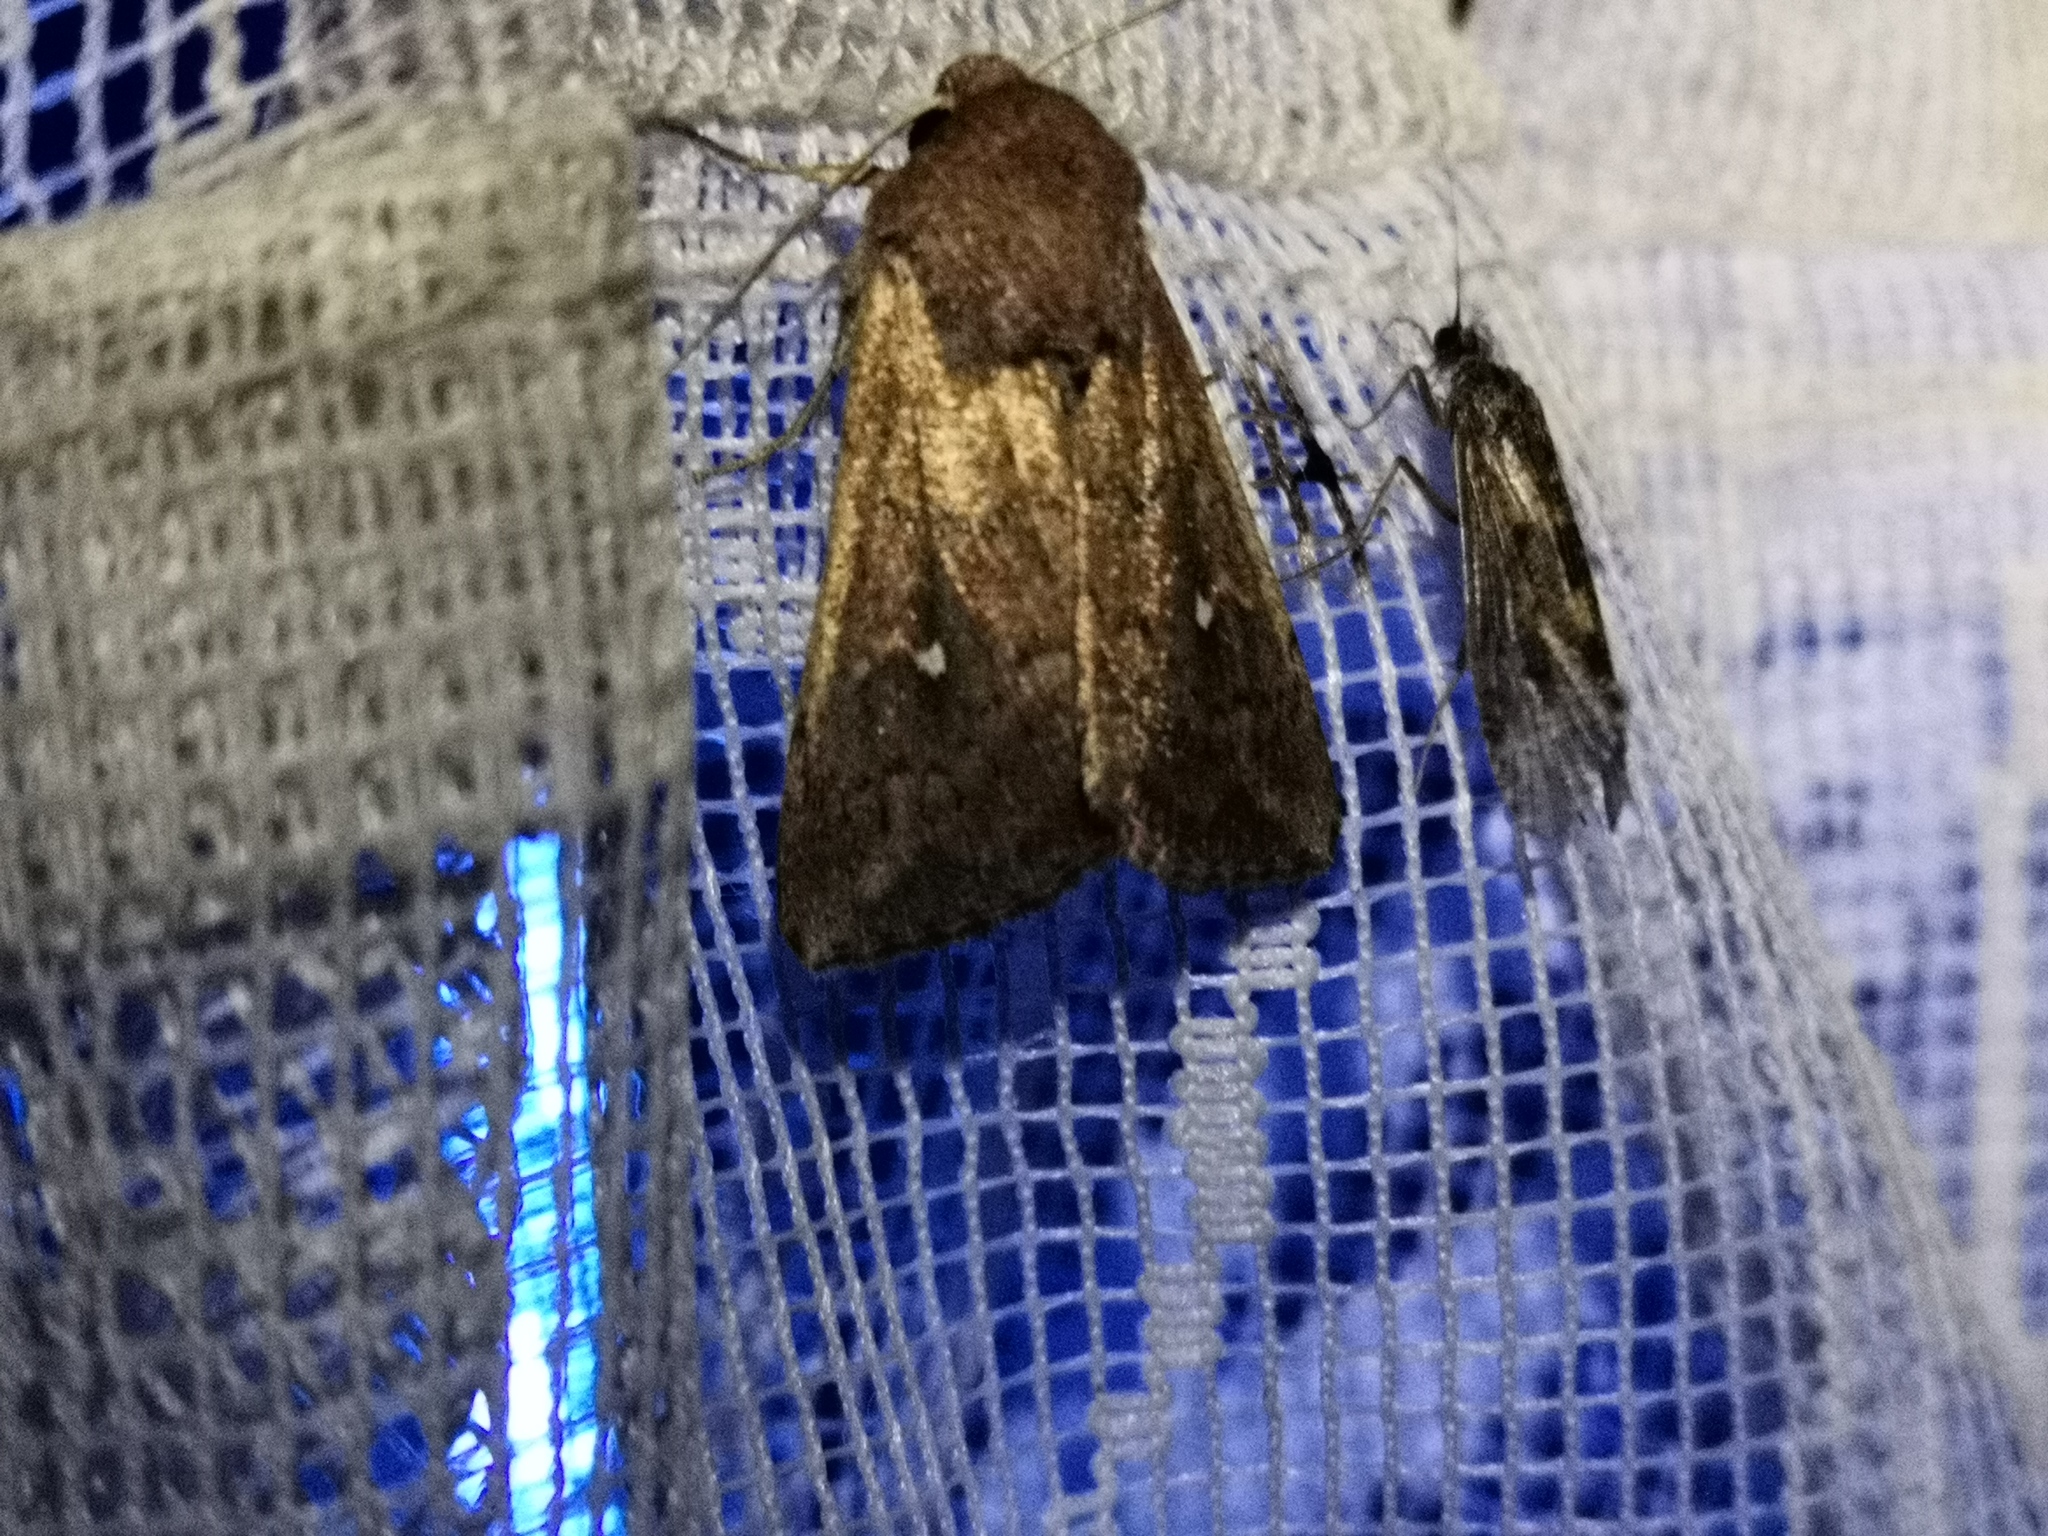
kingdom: Animalia
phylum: Arthropoda
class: Insecta
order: Lepidoptera
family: Noctuidae
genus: Mythimna
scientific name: Mythimna albipuncta
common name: White-point
